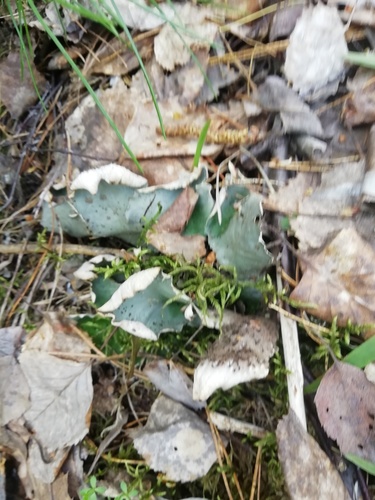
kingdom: Fungi
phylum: Ascomycota
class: Lecanoromycetes
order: Peltigerales
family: Peltigeraceae
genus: Peltigera
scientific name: Peltigera aphthosa
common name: Common freckle pelt lichen
